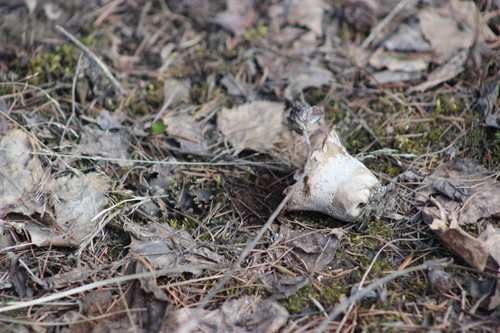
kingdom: Fungi
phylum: Basidiomycota
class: Agaricomycetes
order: Agaricales
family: Lycoperdaceae
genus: Lycoperdon
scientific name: Lycoperdon excipuliforme
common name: Pestle puffball
